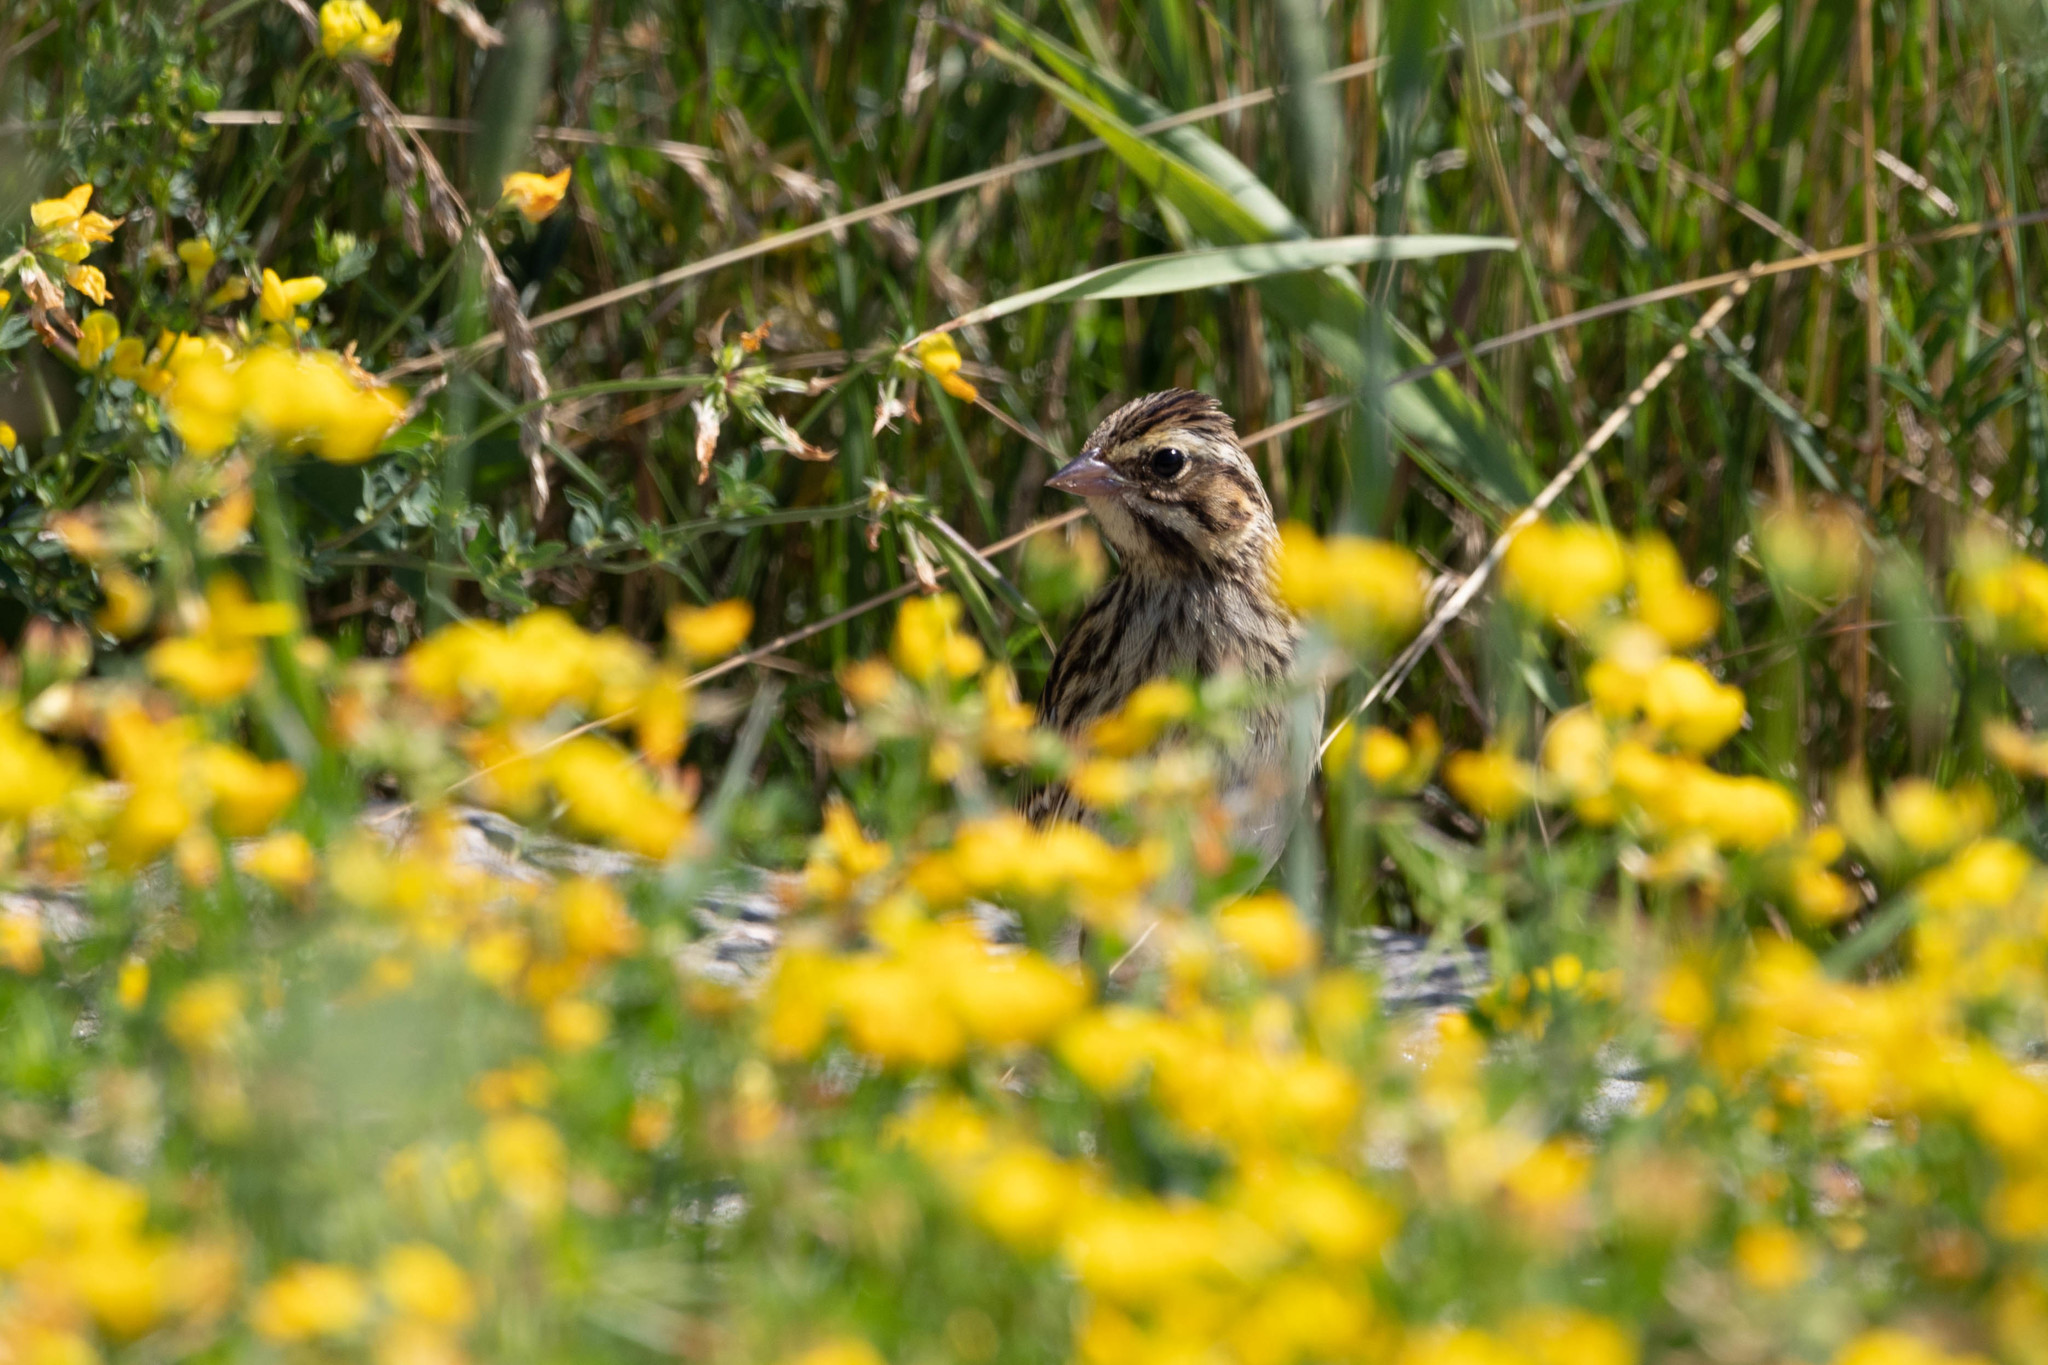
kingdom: Animalia
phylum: Chordata
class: Aves
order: Passeriformes
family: Passerellidae
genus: Passerculus
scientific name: Passerculus sandwichensis
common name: Savannah sparrow
